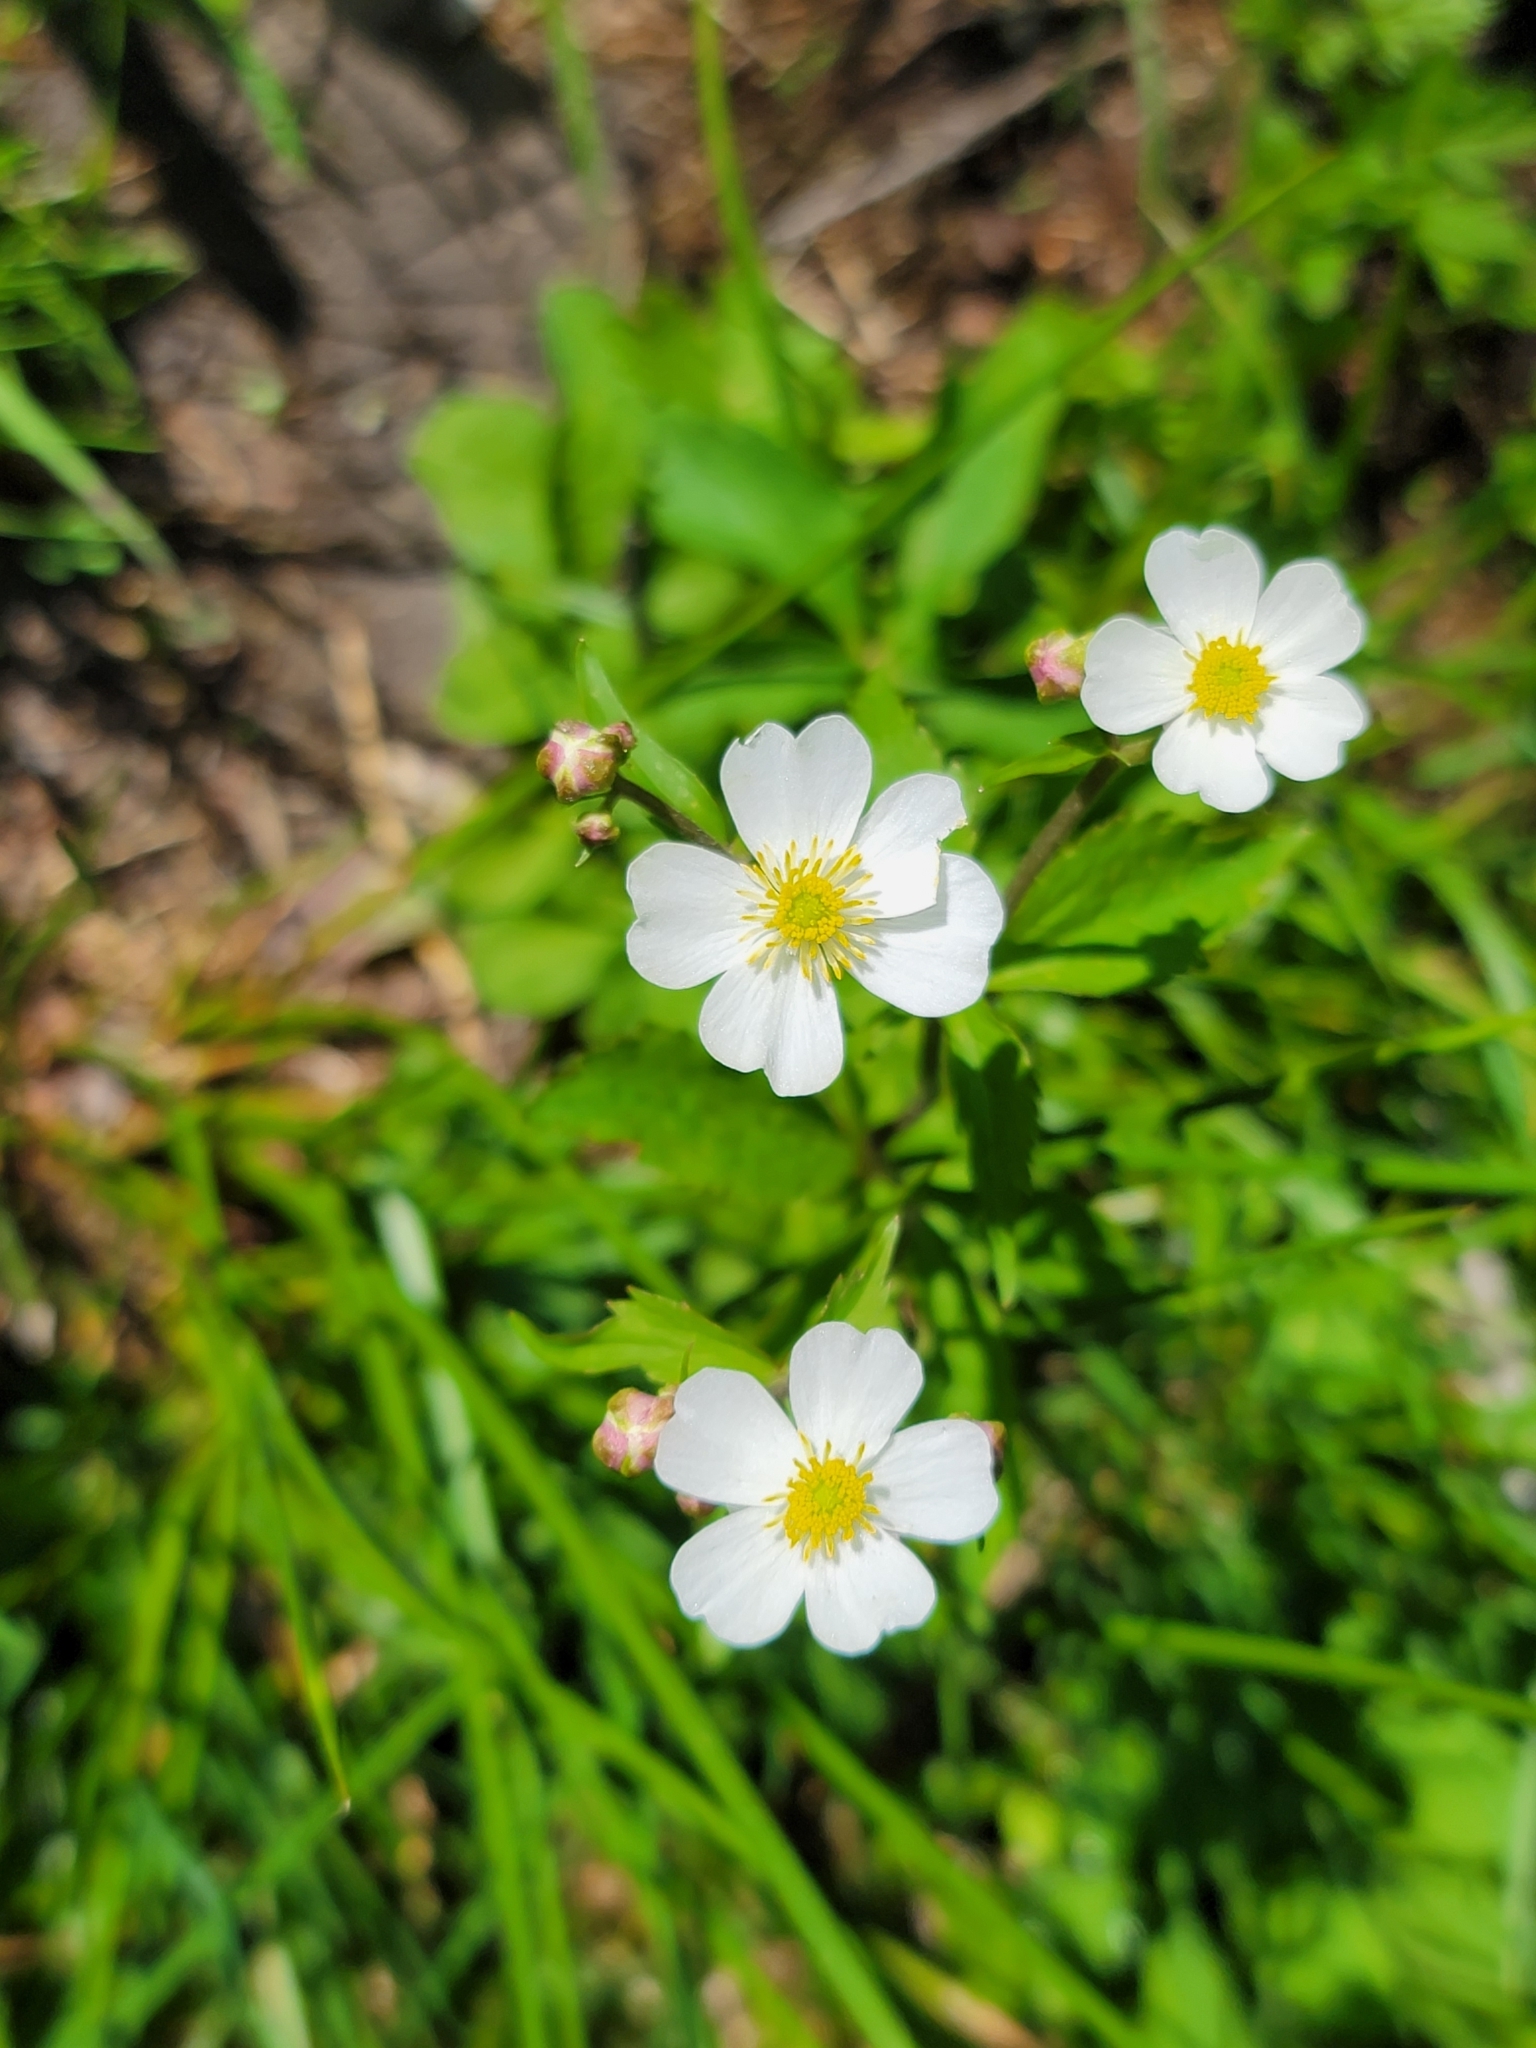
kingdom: Plantae
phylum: Tracheophyta
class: Magnoliopsida
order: Ranunculales
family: Ranunculaceae
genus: Ranunculus
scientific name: Ranunculus aconitifolius
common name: Aconite-leaved buttercup
